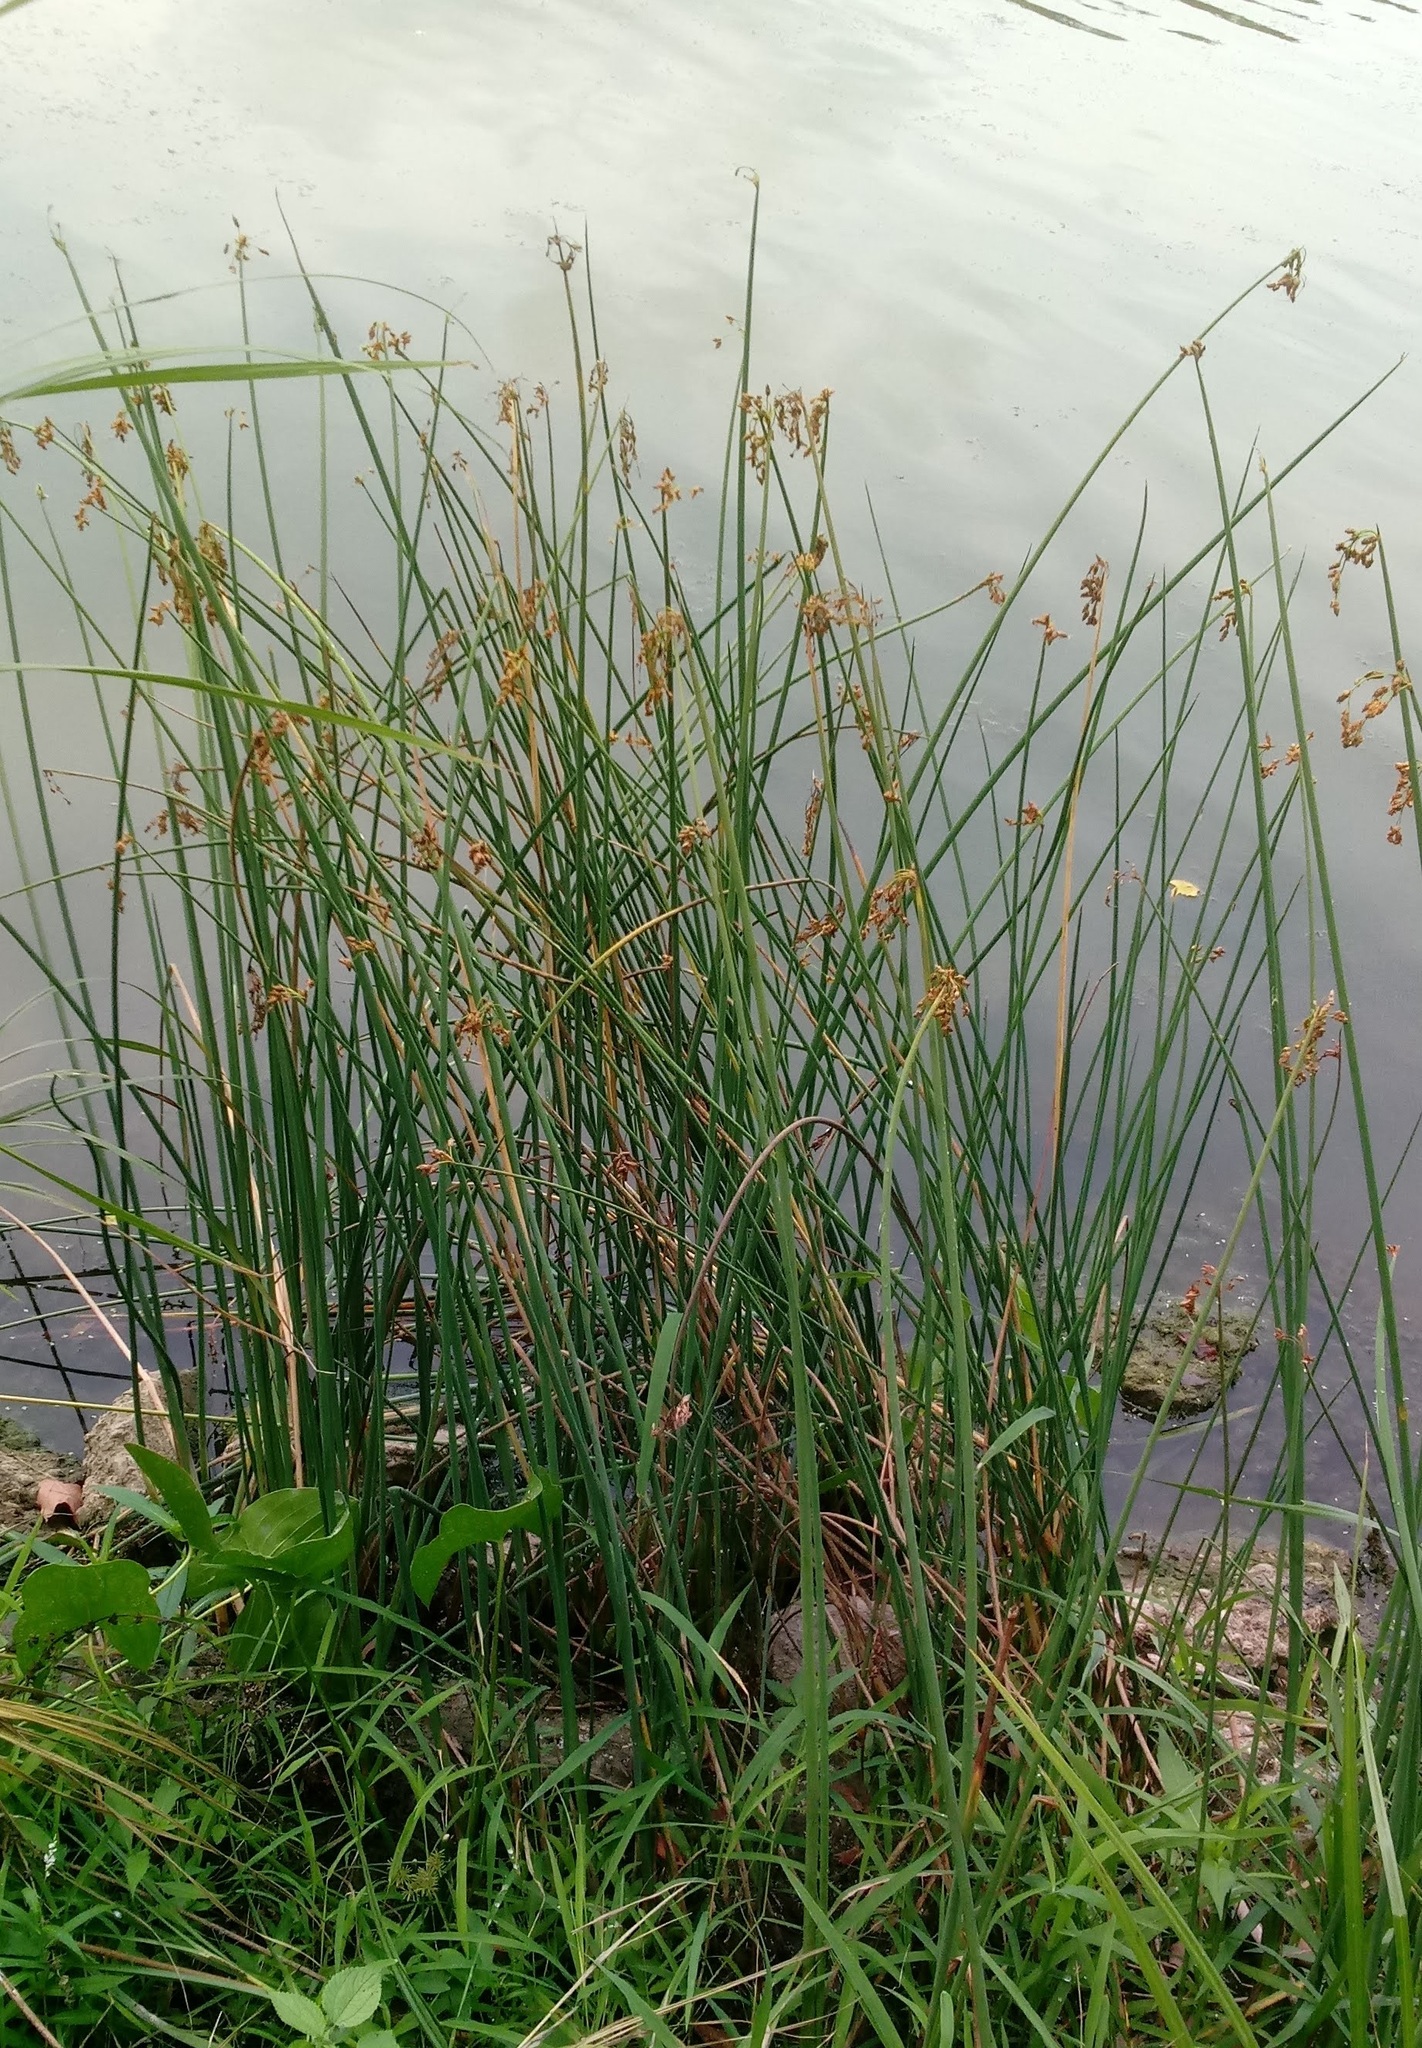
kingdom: Plantae
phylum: Tracheophyta
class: Liliopsida
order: Poales
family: Cyperaceae
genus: Schoenoplectus
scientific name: Schoenoplectus tabernaemontani
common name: Grey club-rush
